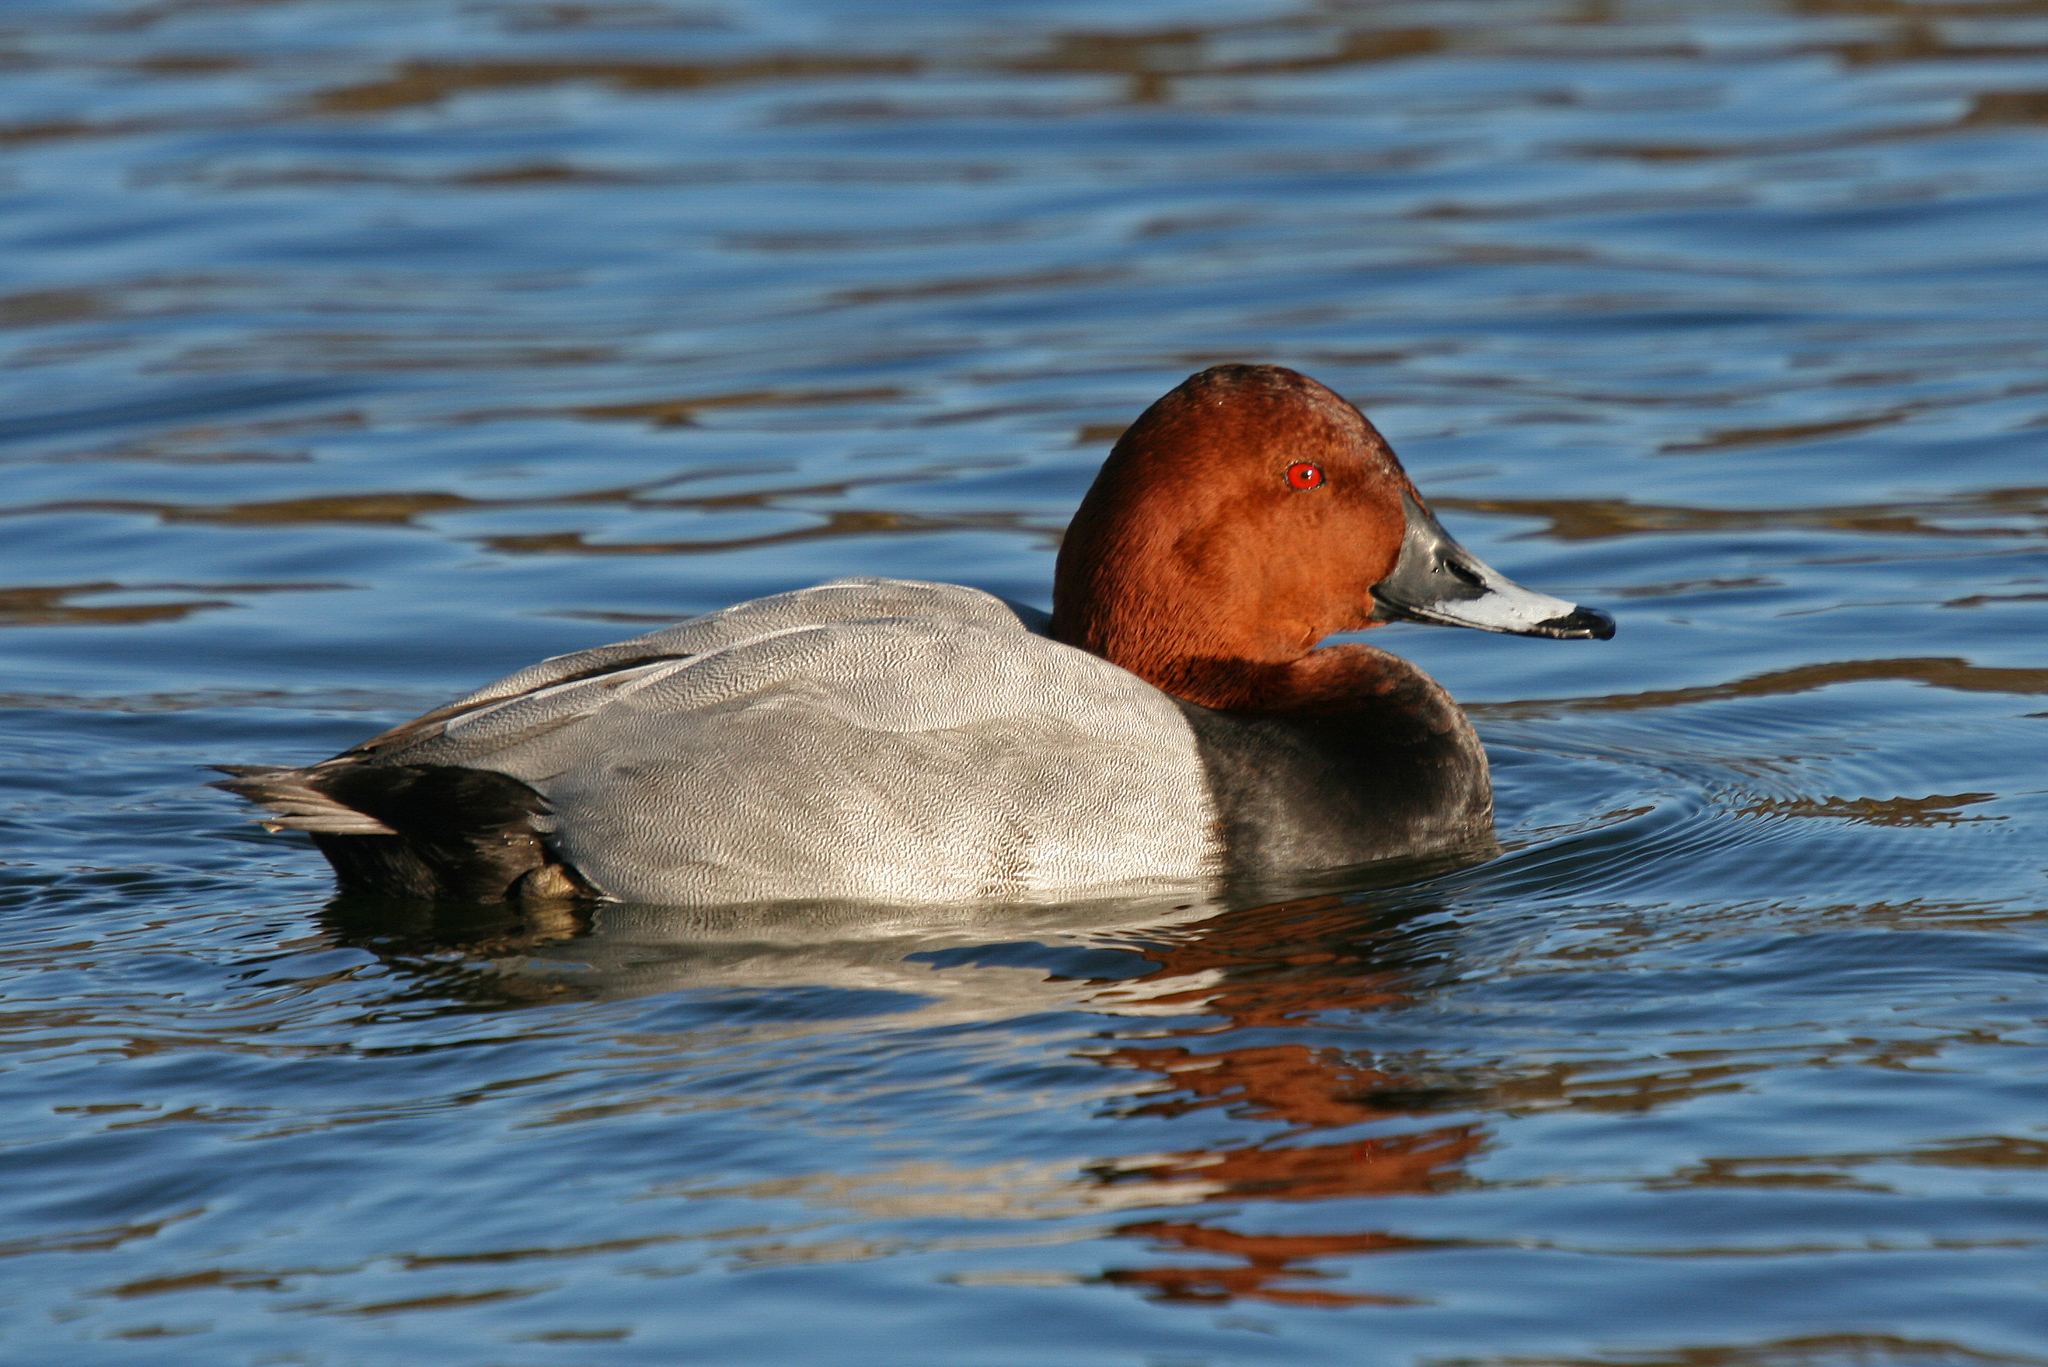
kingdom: Animalia
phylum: Chordata
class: Aves
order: Anseriformes
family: Anatidae
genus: Aythya
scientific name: Aythya ferina
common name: Common pochard
